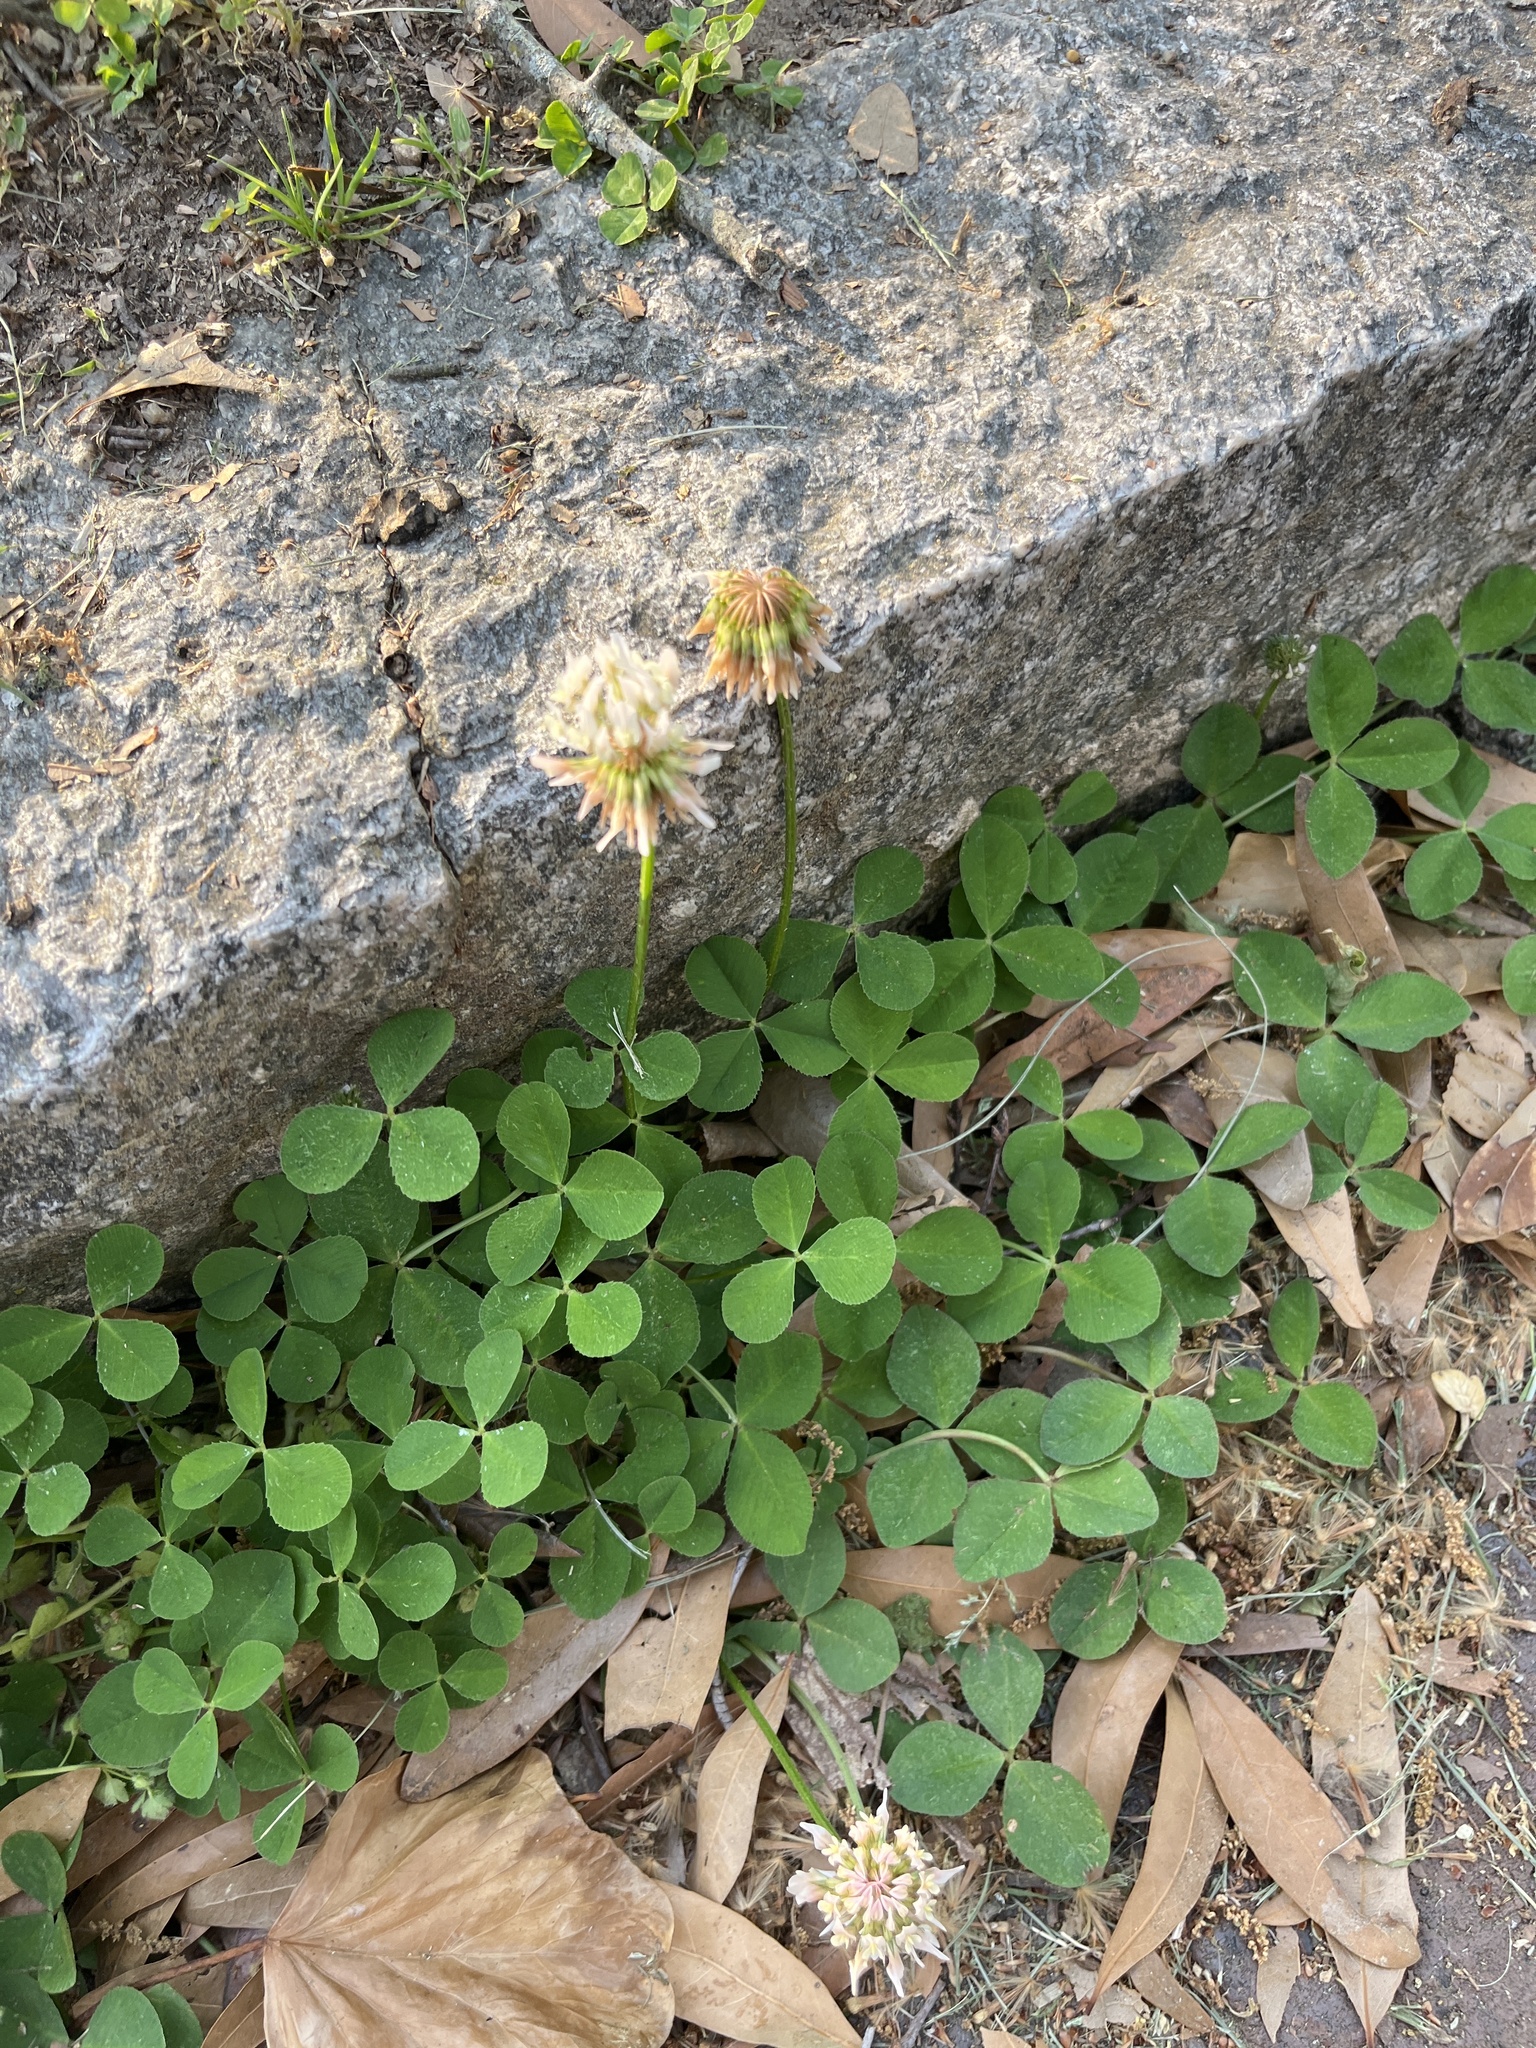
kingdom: Plantae
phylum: Tracheophyta
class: Magnoliopsida
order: Fabales
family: Fabaceae
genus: Trifolium
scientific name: Trifolium repens
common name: White clover
